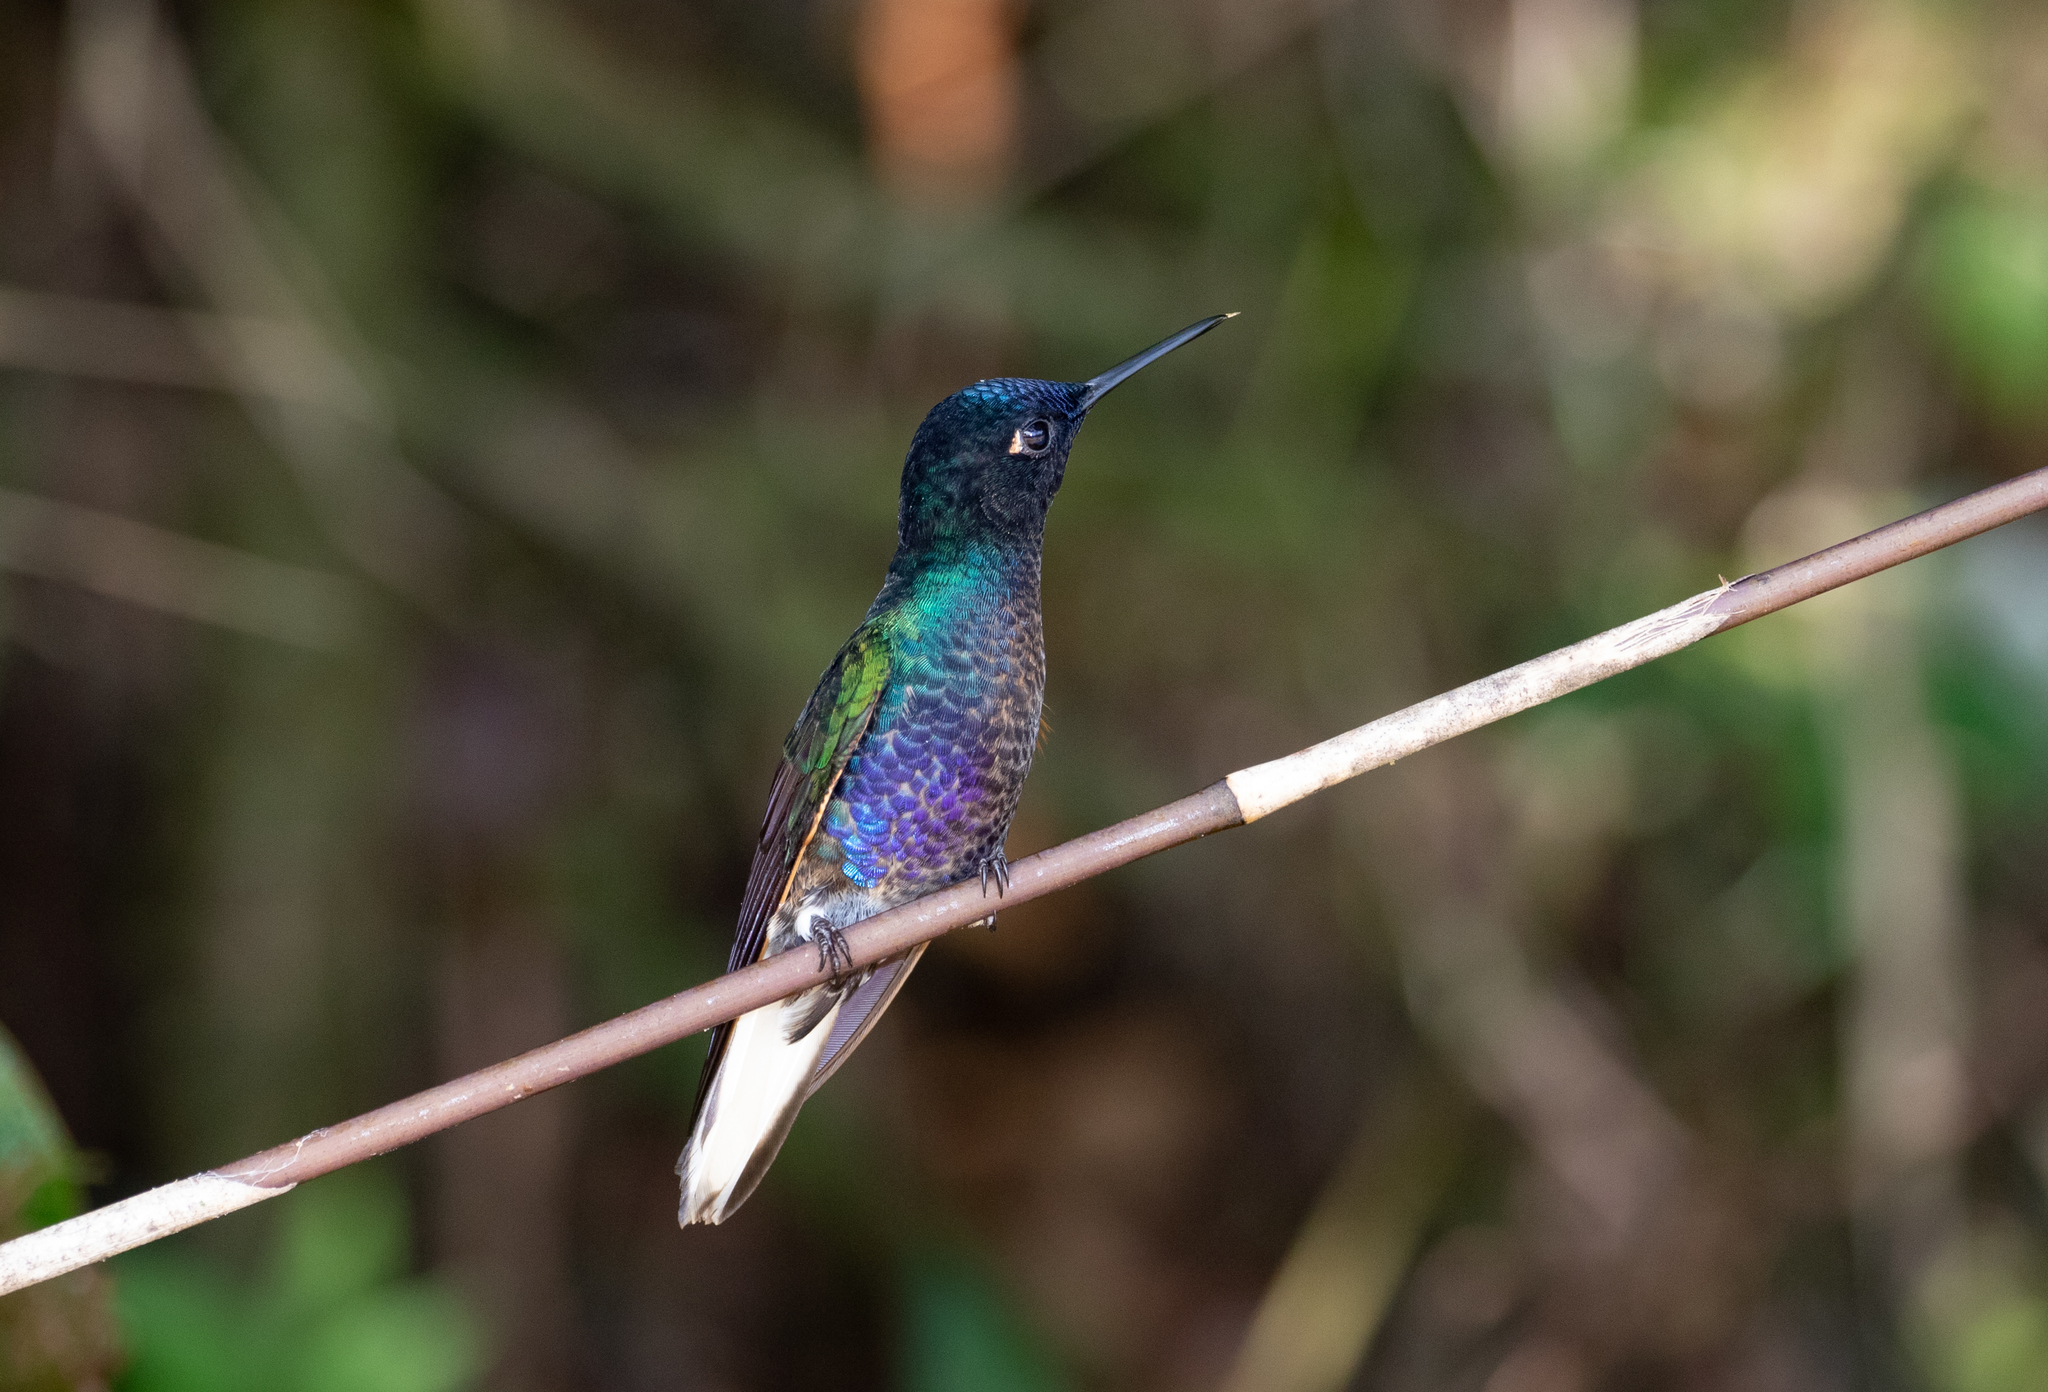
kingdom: Animalia
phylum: Chordata
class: Aves
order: Apodiformes
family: Trochilidae
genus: Boissonneaua
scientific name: Boissonneaua jardini
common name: Velvet-purple coronet
